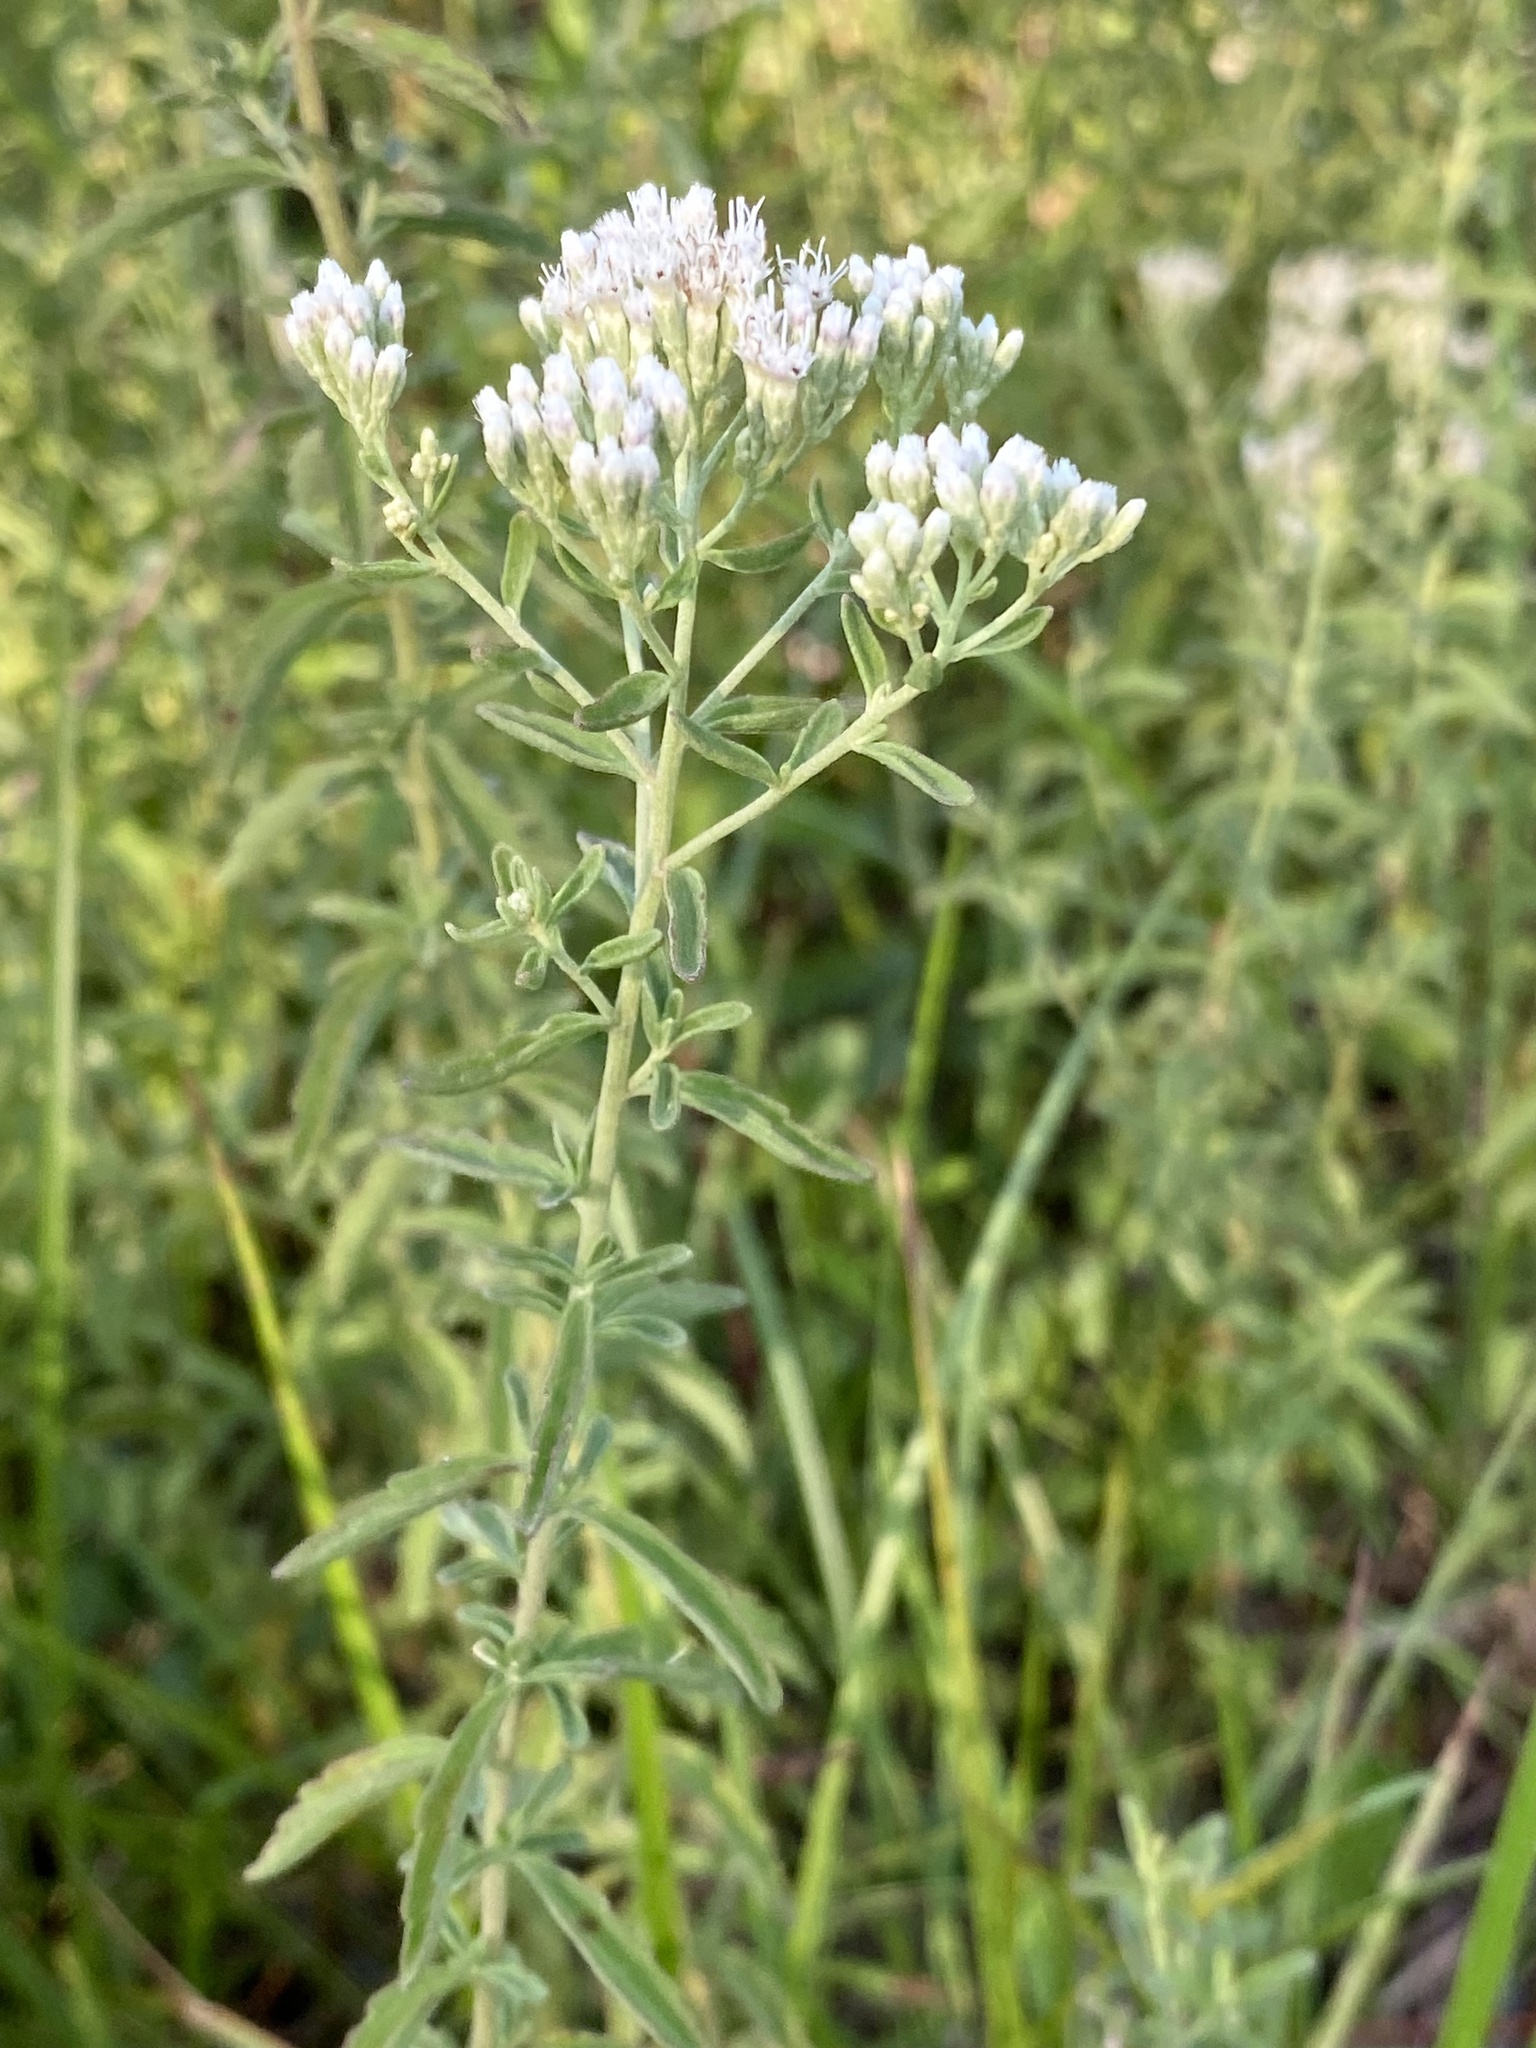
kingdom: Plantae
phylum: Tracheophyta
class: Magnoliopsida
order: Asterales
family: Asteraceae
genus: Eupatorium
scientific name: Eupatorium mohrii
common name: Mohr's thoroughwort
